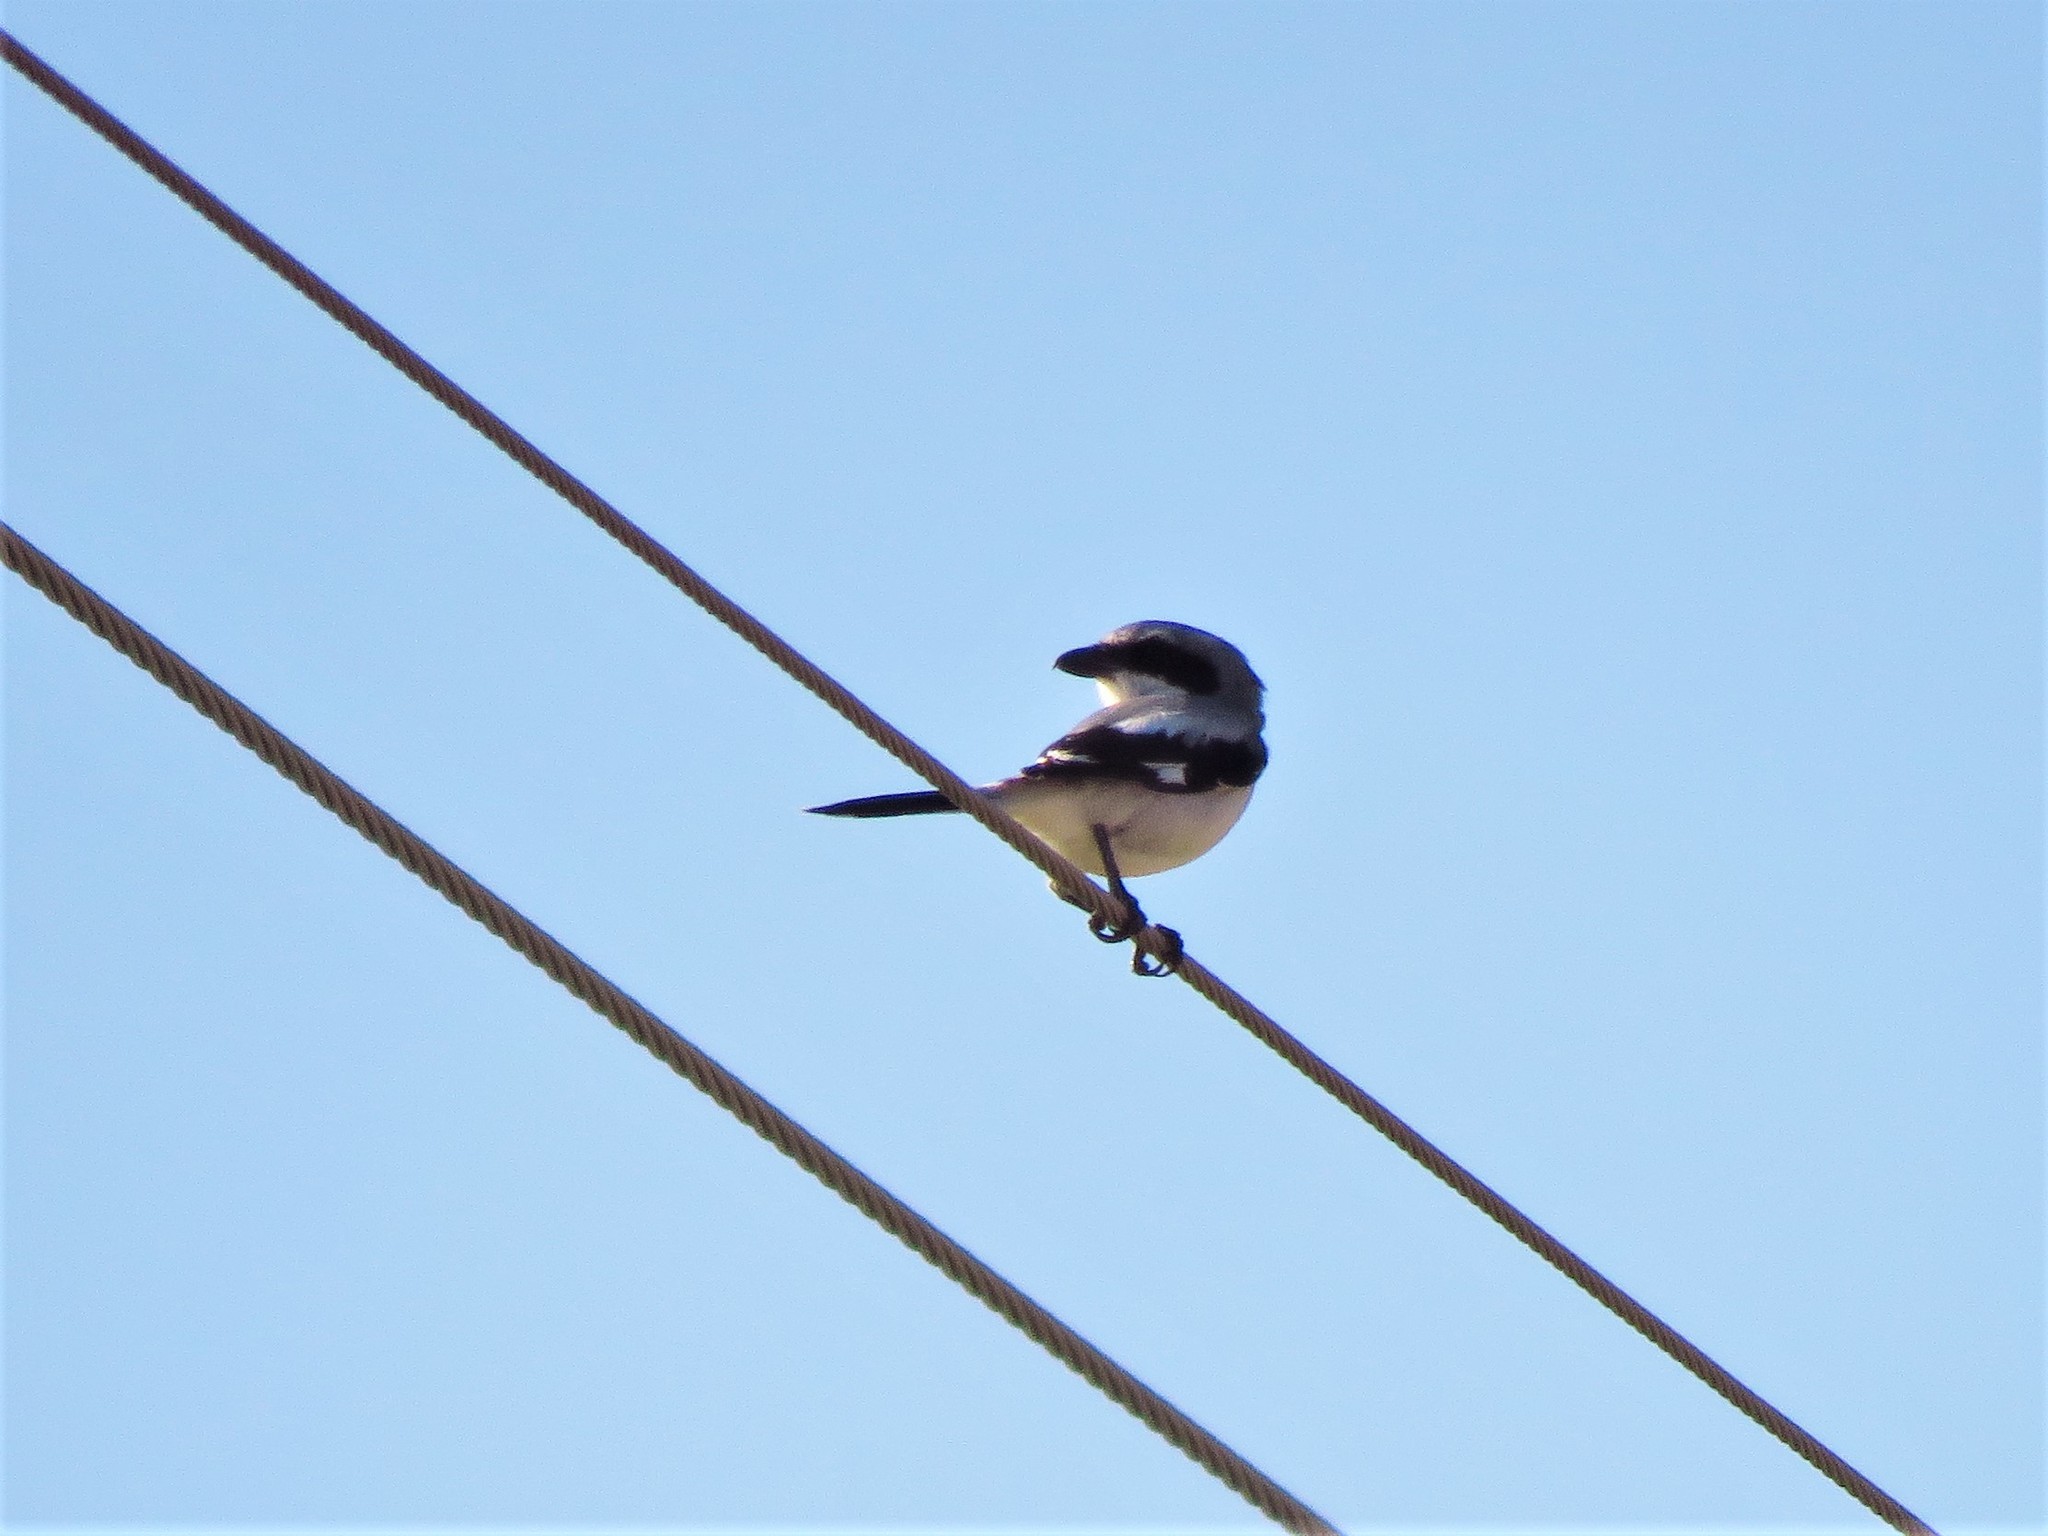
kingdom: Animalia
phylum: Chordata
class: Aves
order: Passeriformes
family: Laniidae
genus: Lanius
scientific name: Lanius ludovicianus
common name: Loggerhead shrike
